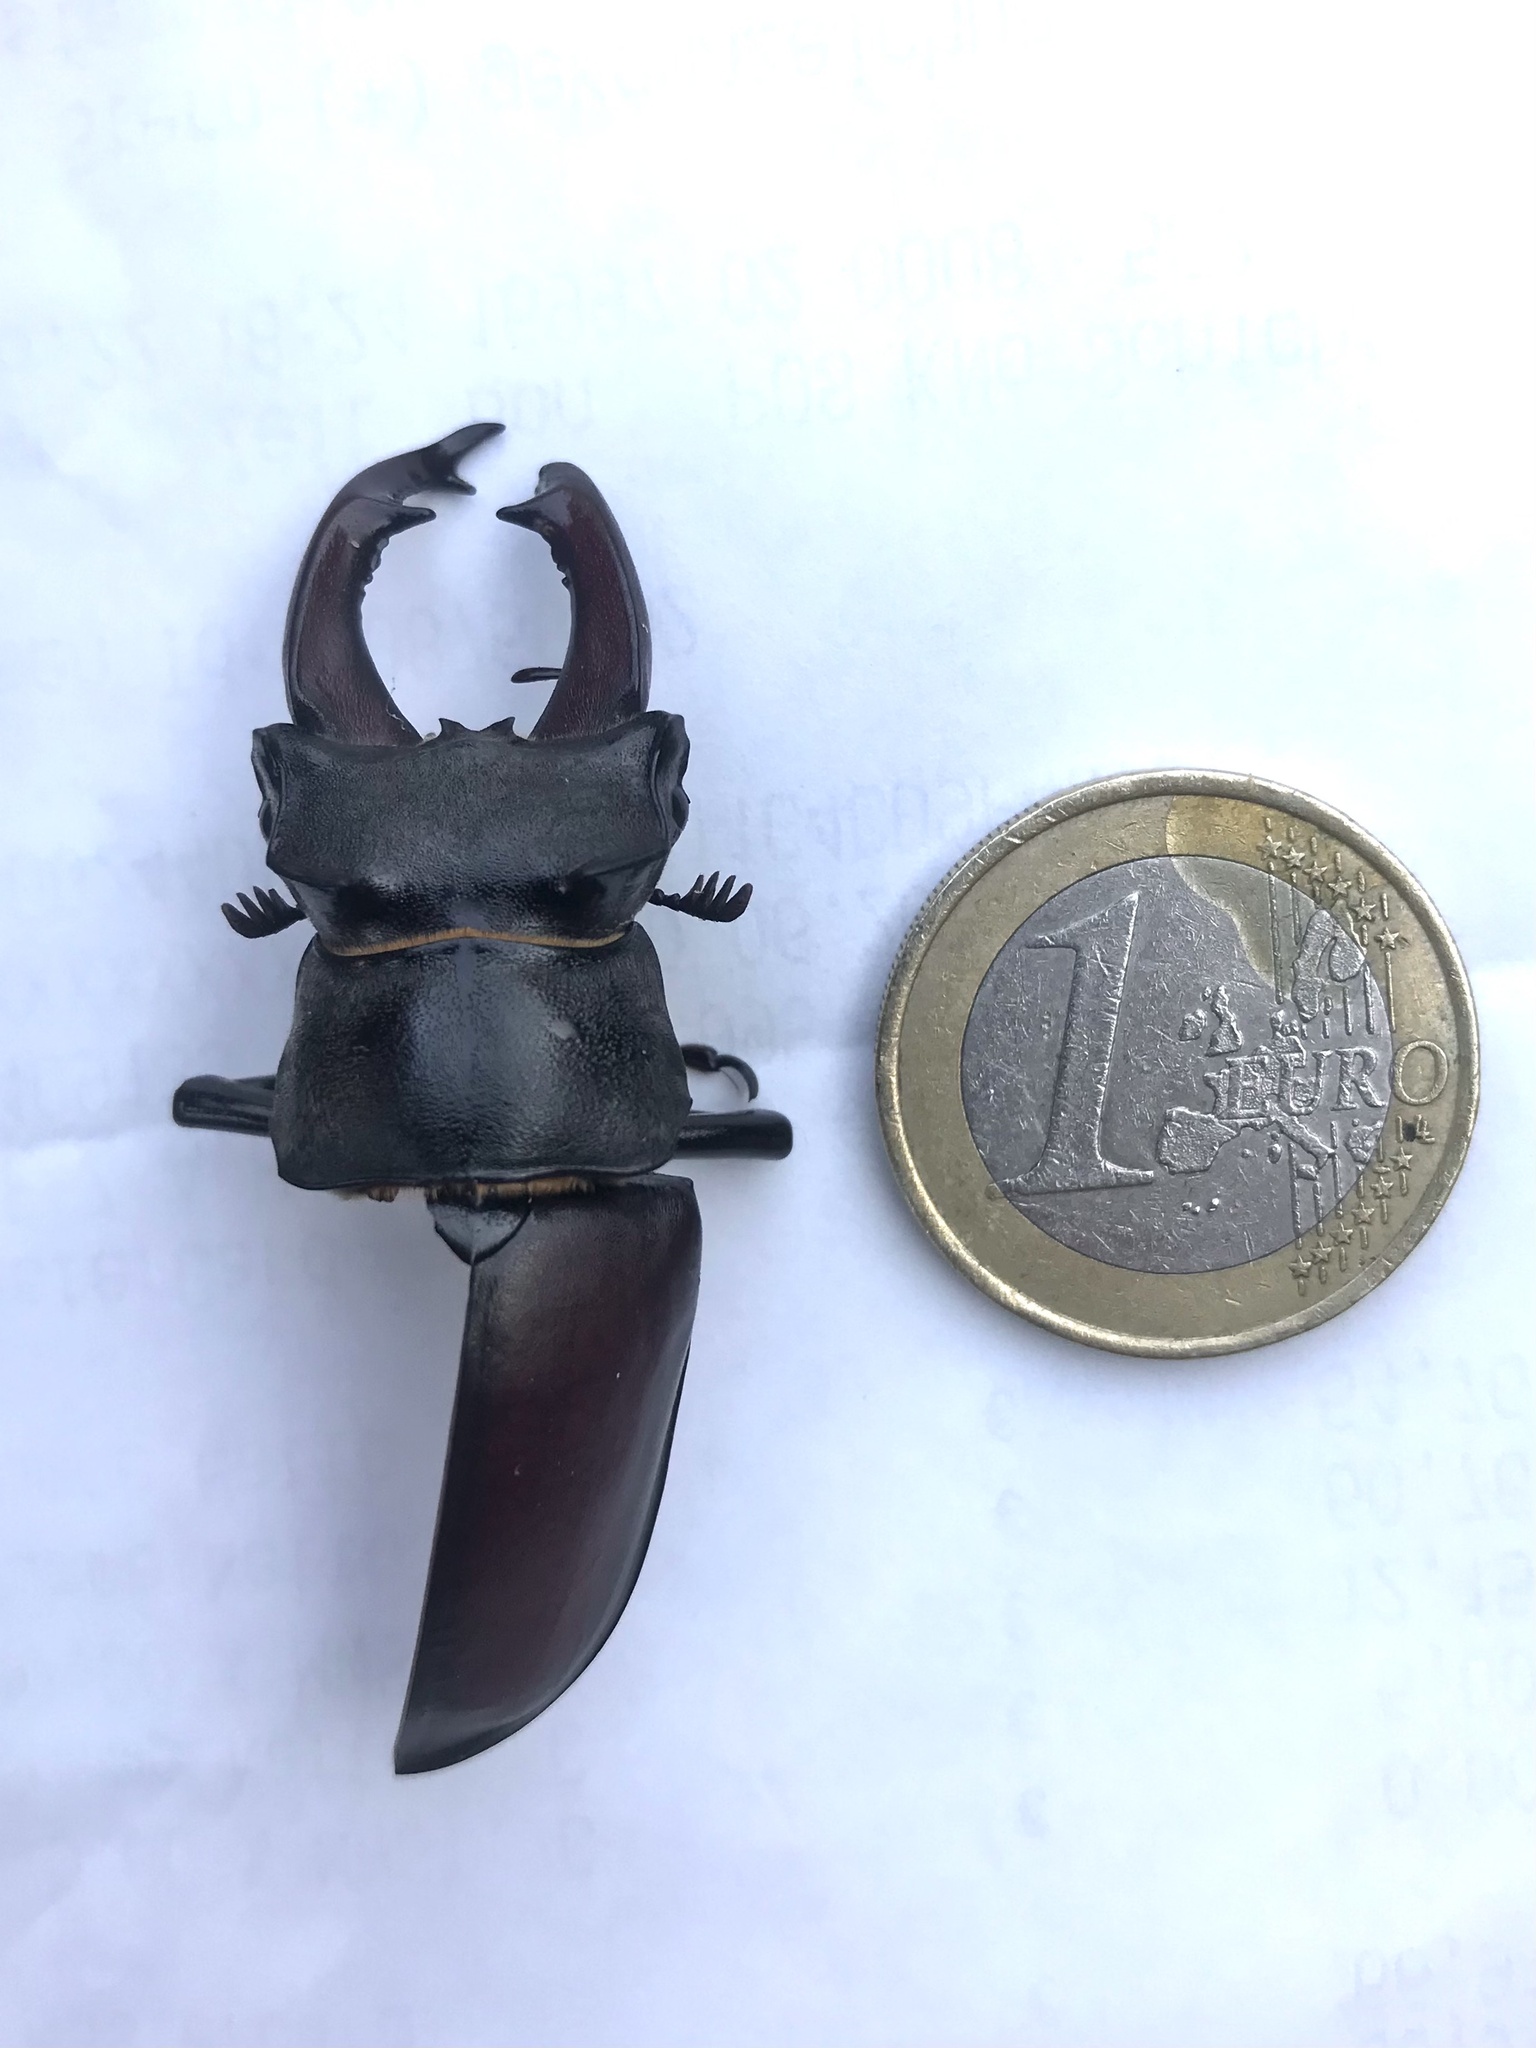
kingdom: Animalia
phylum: Arthropoda
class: Insecta
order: Coleoptera
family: Lucanidae
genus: Lucanus
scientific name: Lucanus cervus
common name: Stag beetle
